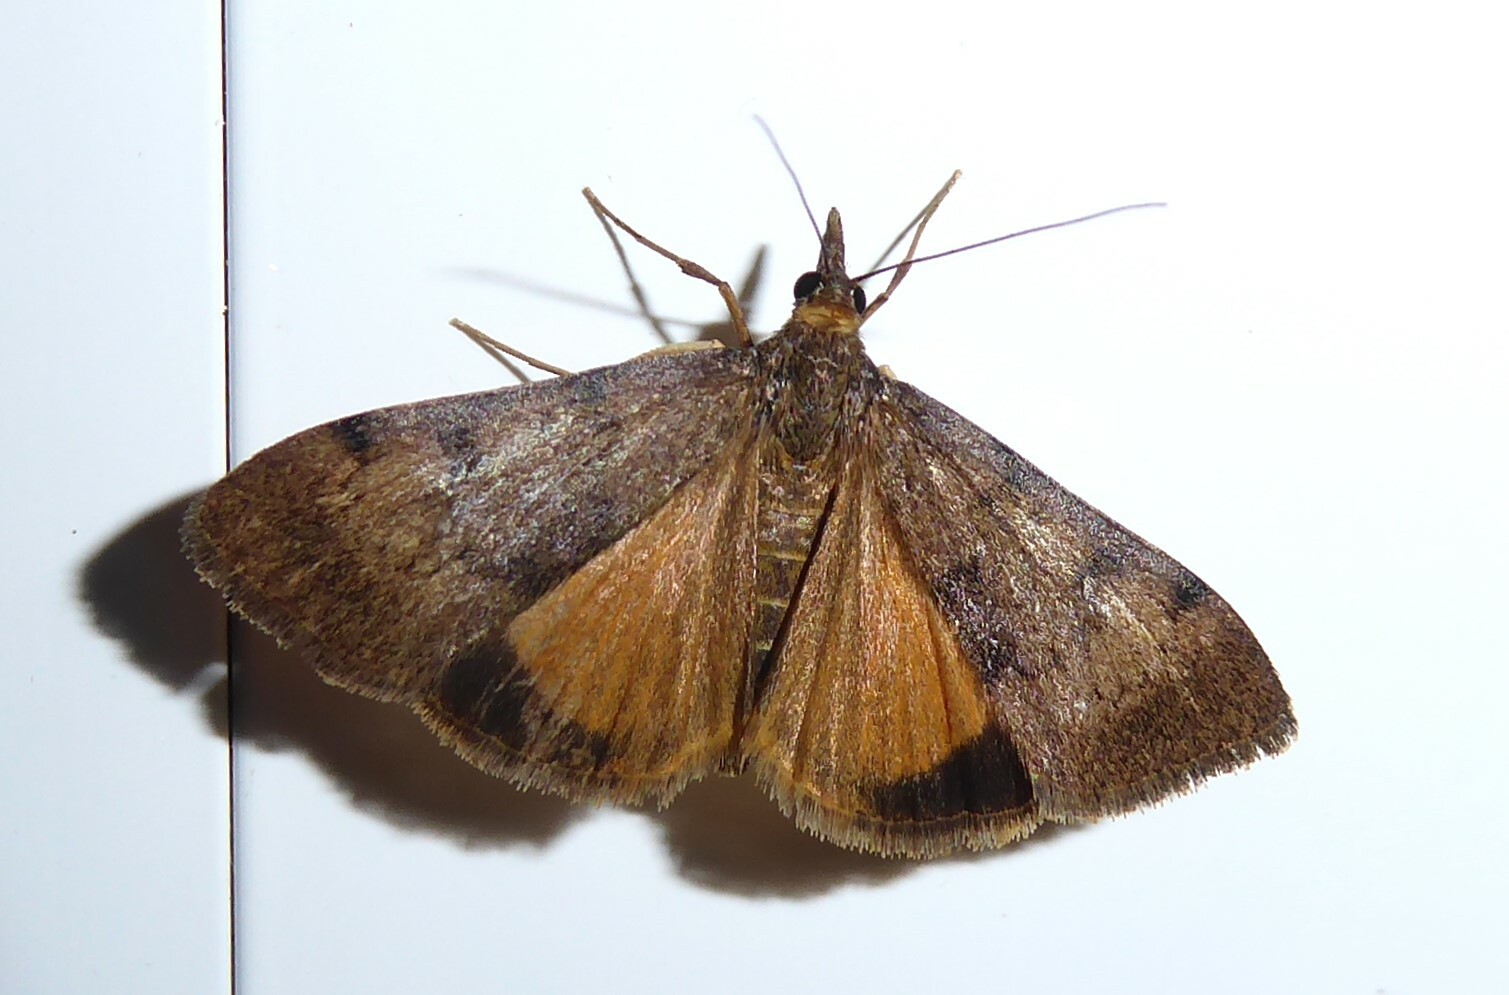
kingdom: Animalia
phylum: Arthropoda
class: Insecta
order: Lepidoptera
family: Crambidae
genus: Uresiphita
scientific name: Uresiphita
